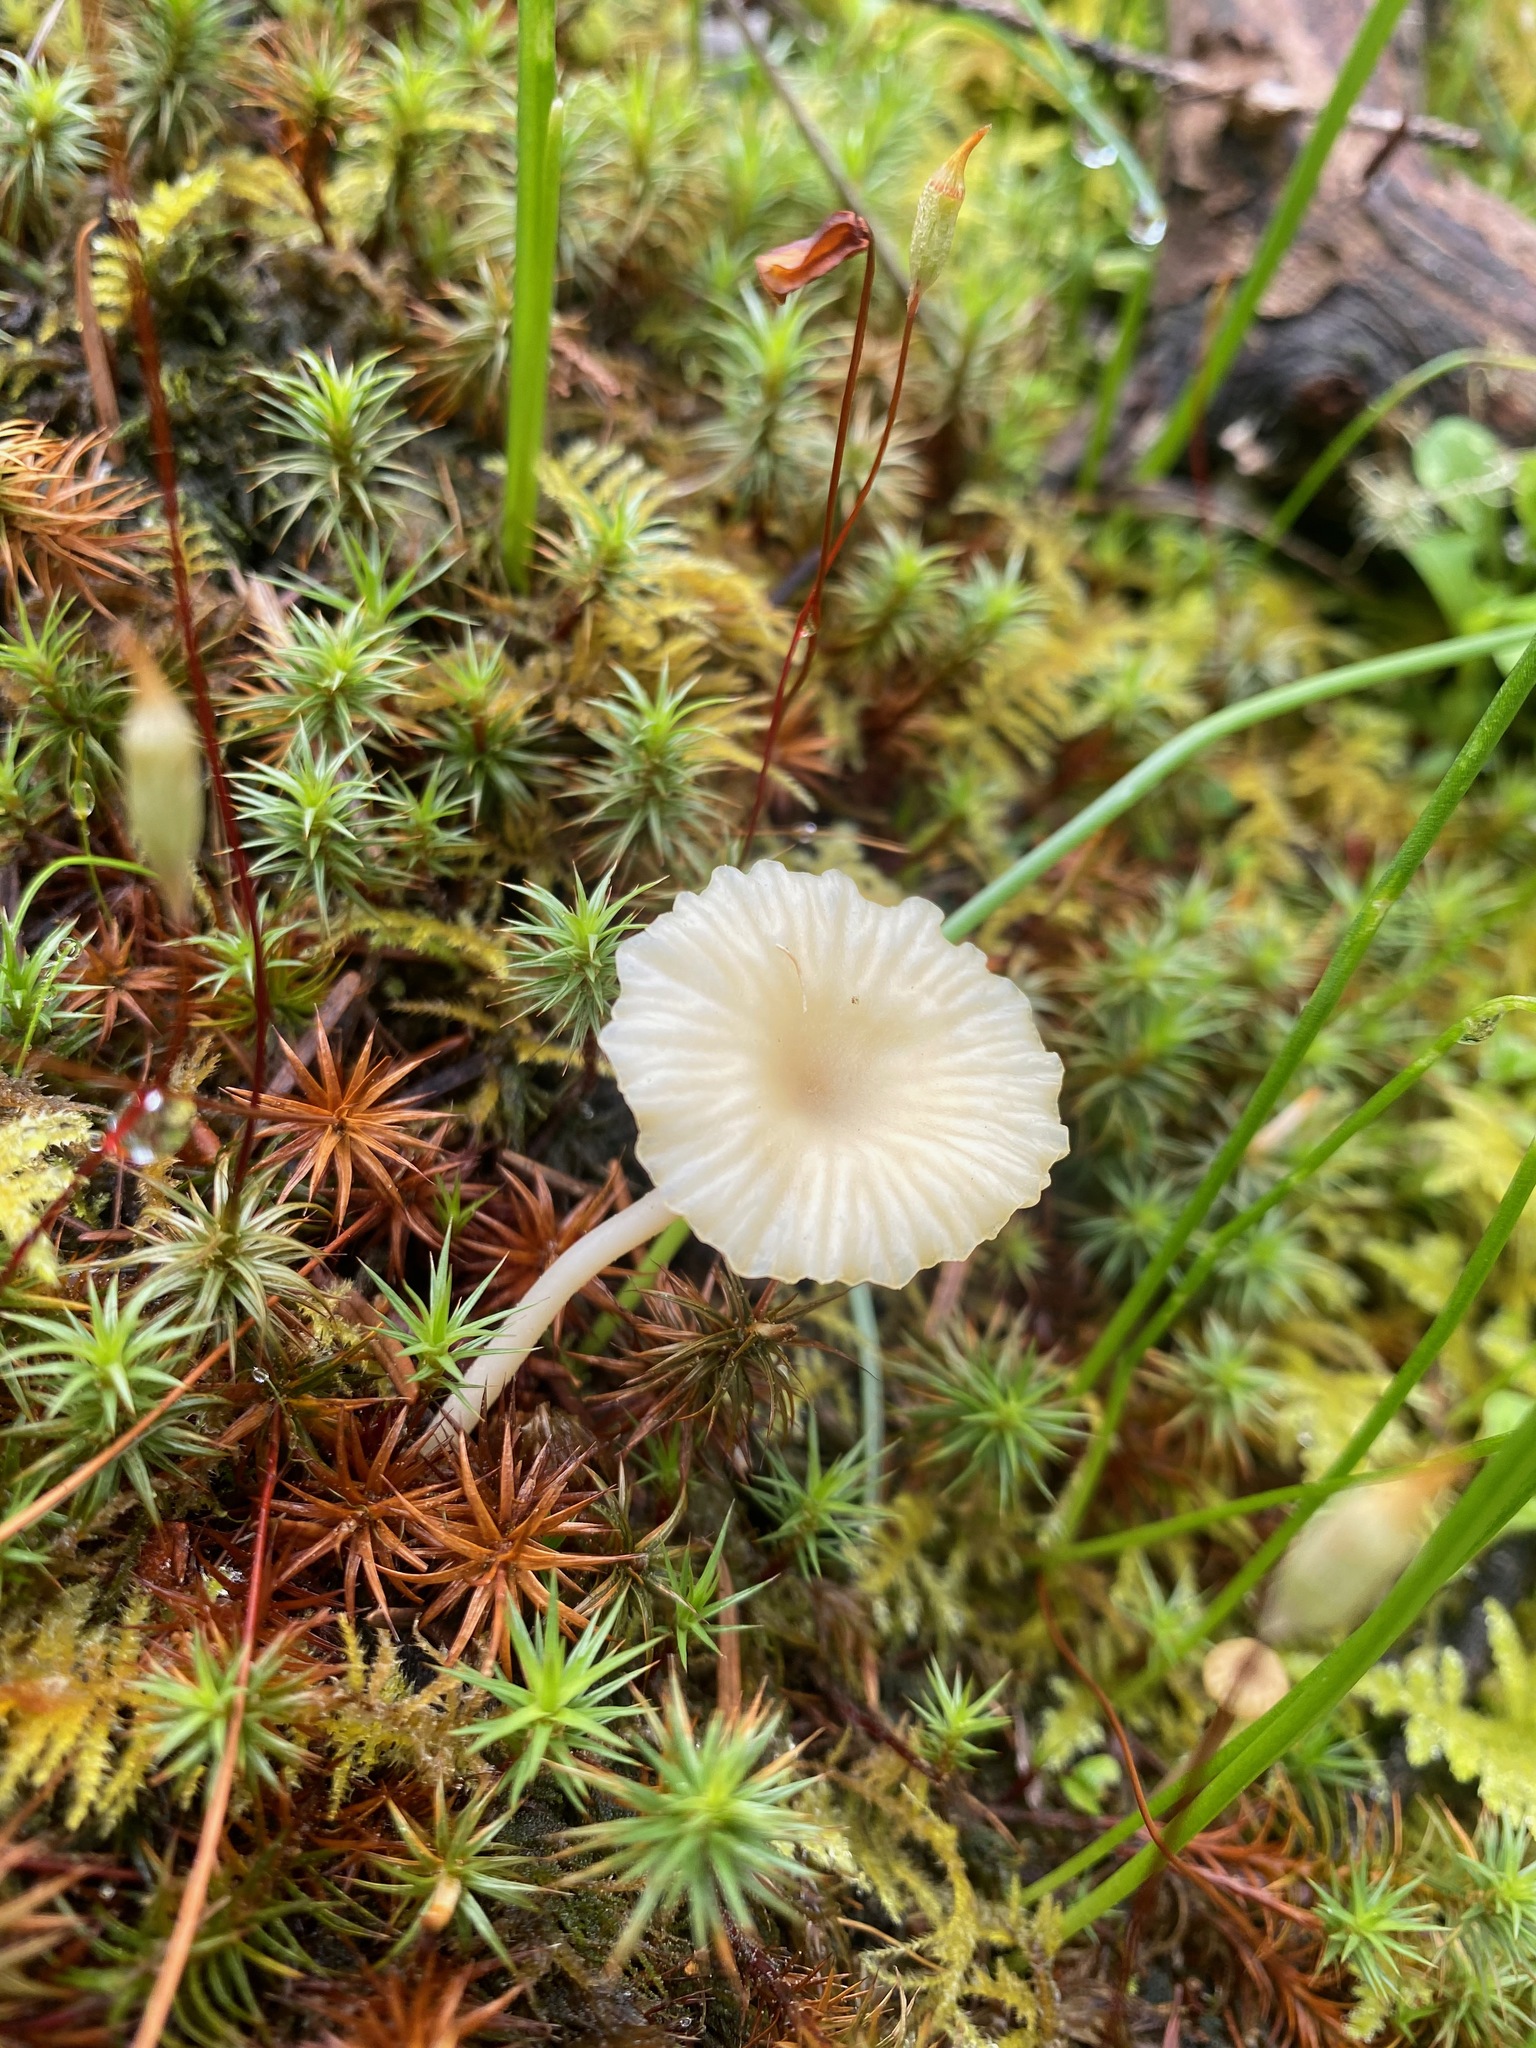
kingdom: Fungi
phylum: Basidiomycota
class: Agaricomycetes
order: Agaricales
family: Hygrophoraceae
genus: Lichenomphalia
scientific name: Lichenomphalia
